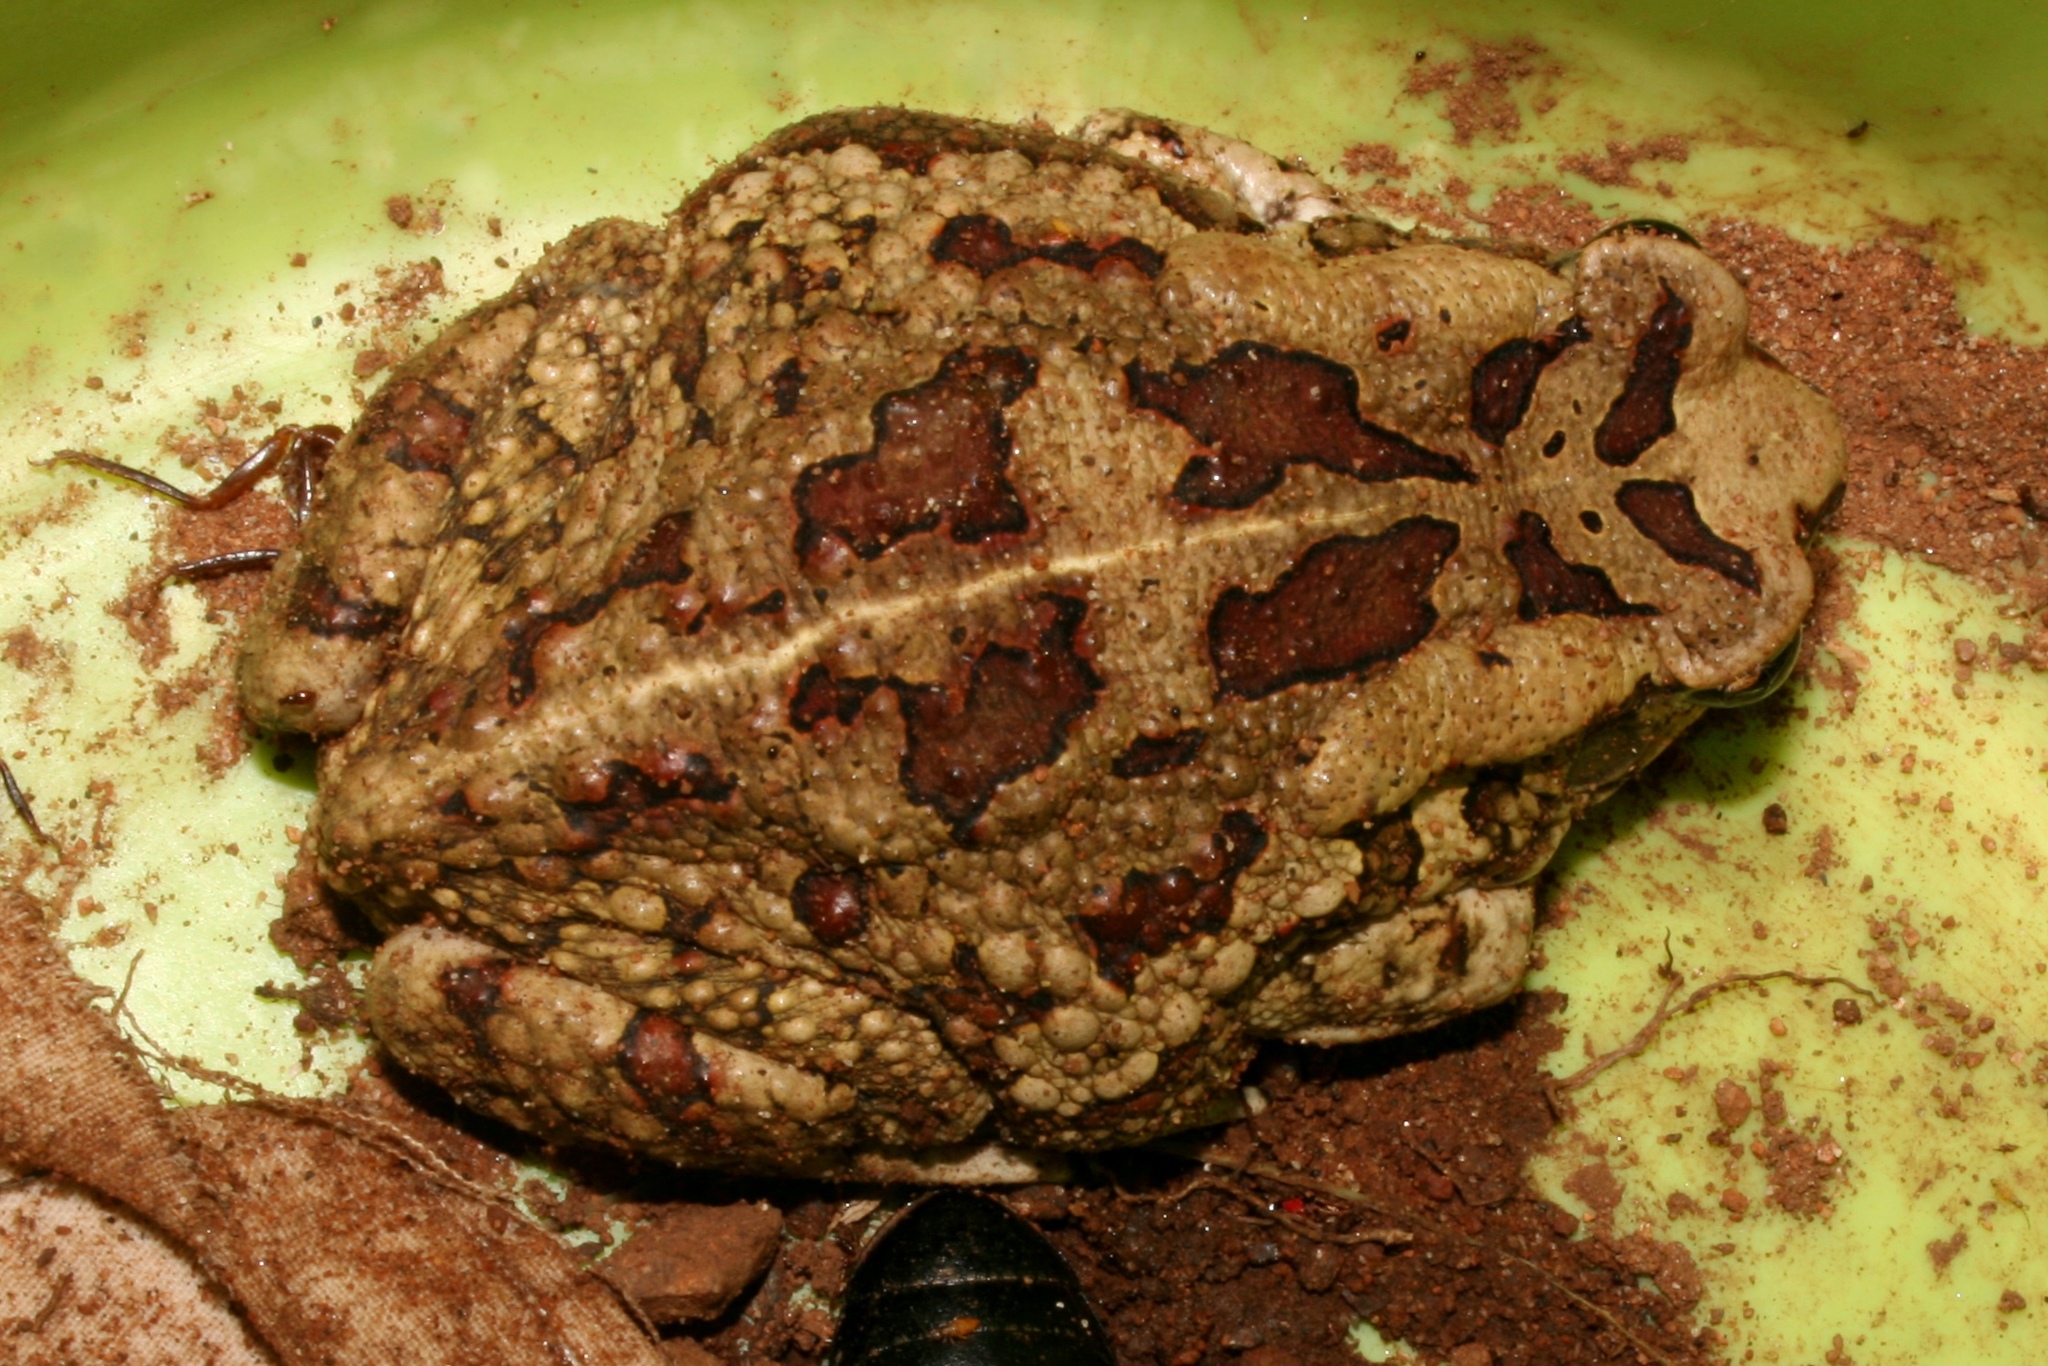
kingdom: Animalia
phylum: Chordata
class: Amphibia
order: Anura
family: Bufonidae
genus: Sclerophrys
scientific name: Sclerophrys garmani
